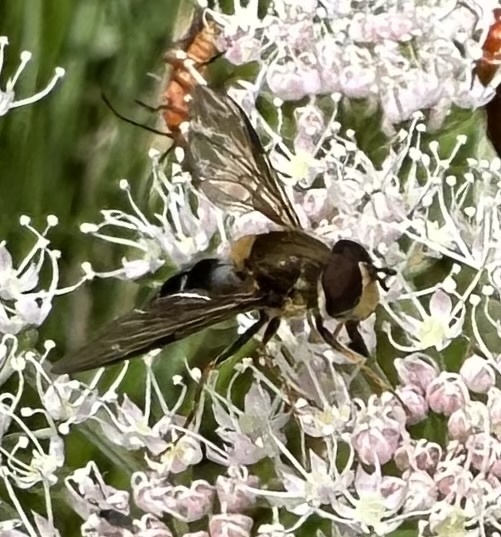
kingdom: Animalia
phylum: Arthropoda
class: Insecta
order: Diptera
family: Syrphidae
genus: Leucozona
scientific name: Leucozona glaucia
